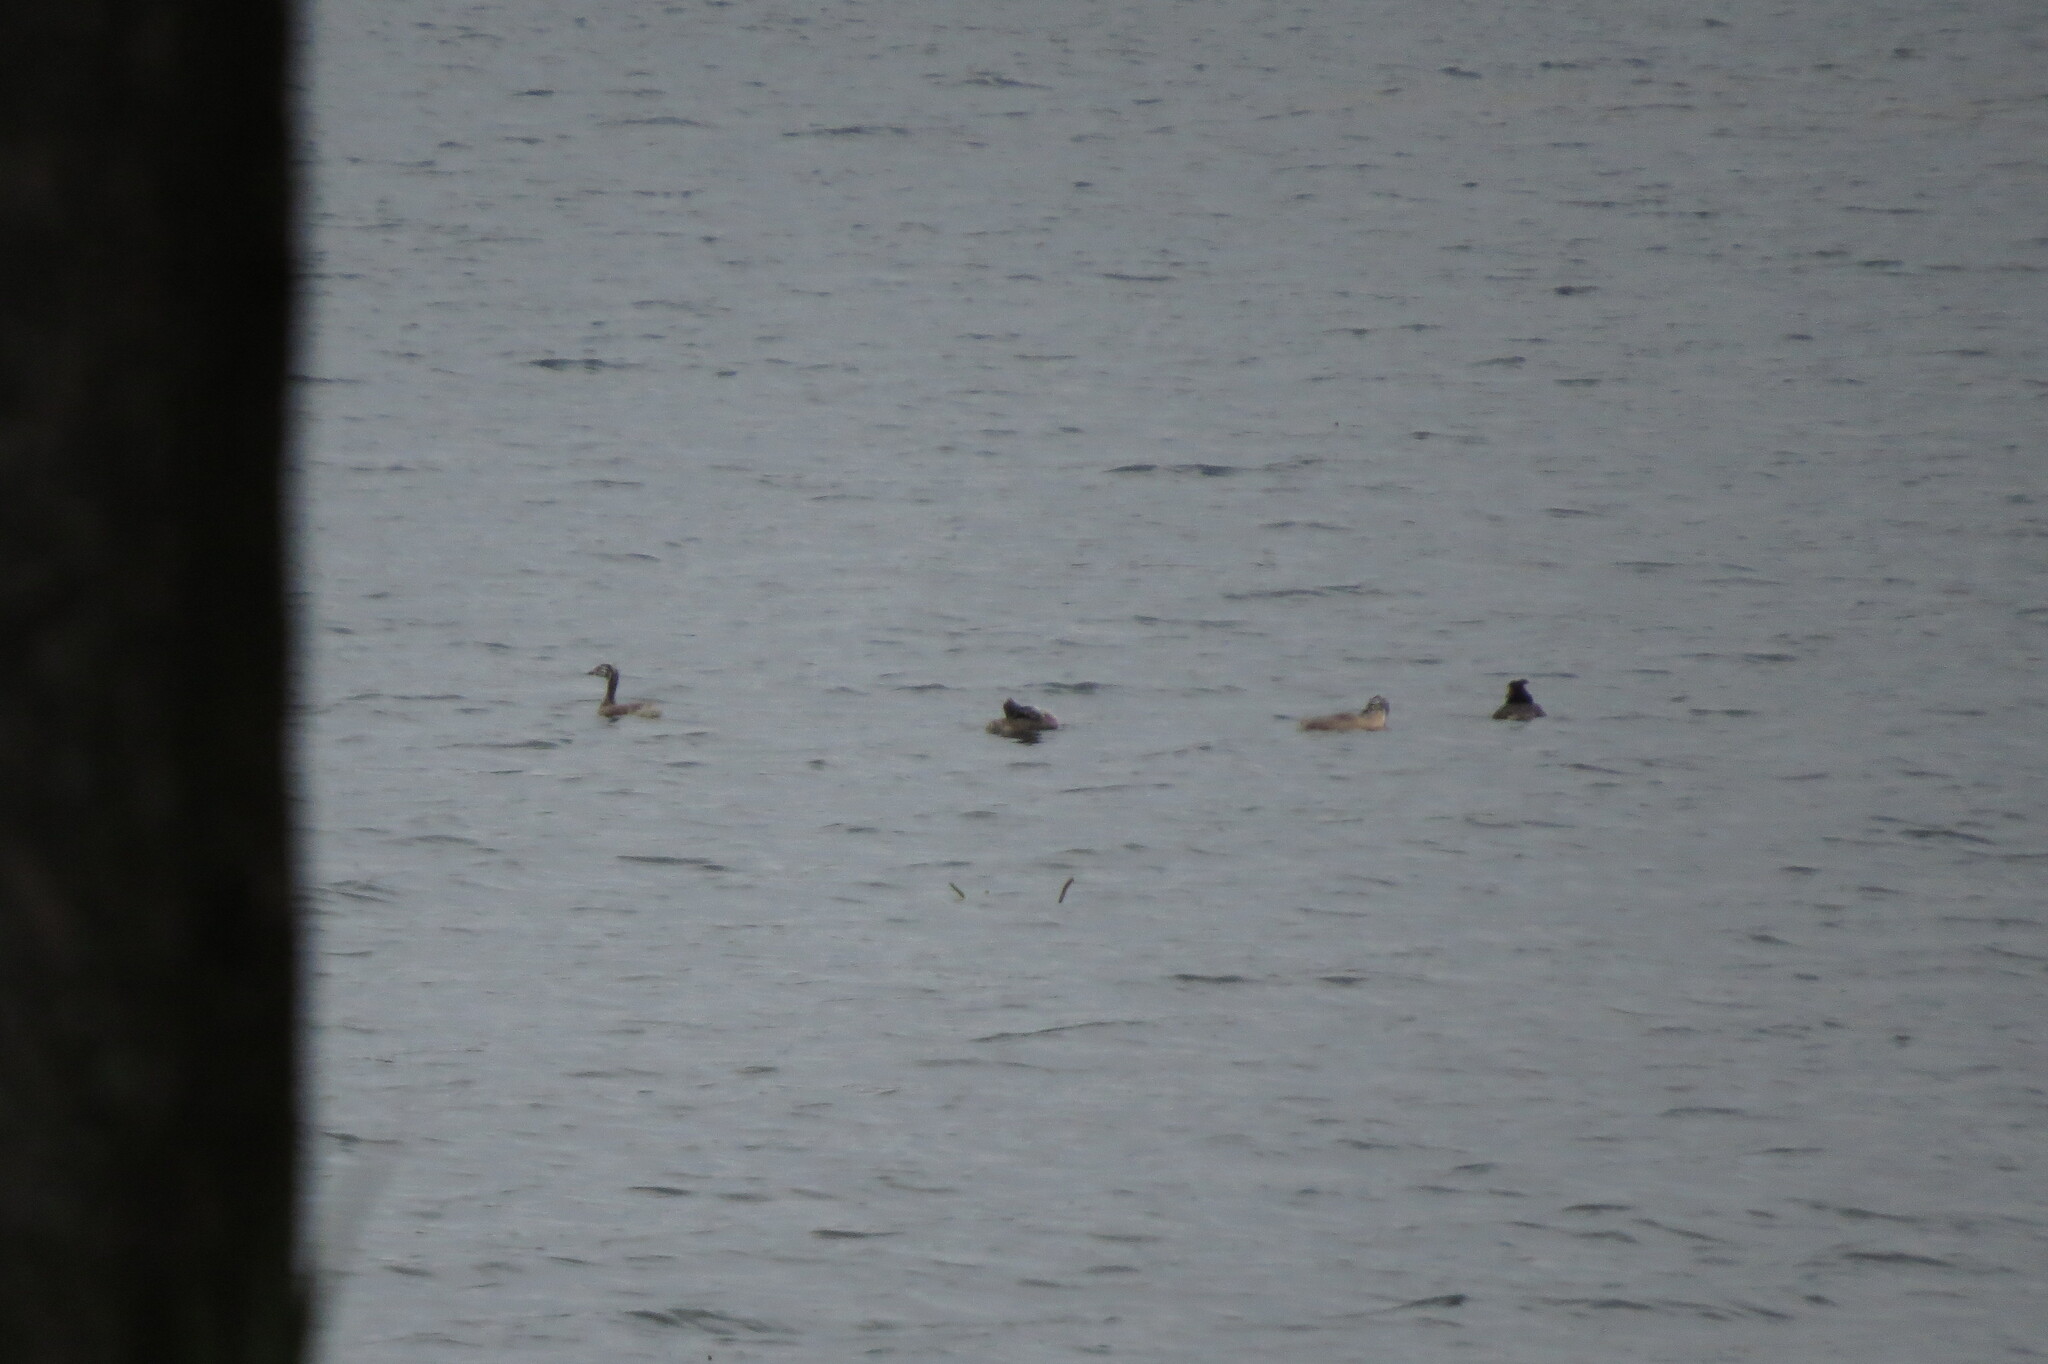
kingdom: Animalia
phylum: Chordata
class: Aves
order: Podicipediformes
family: Podicipedidae
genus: Podiceps
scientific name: Podiceps cristatus
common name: Great crested grebe
